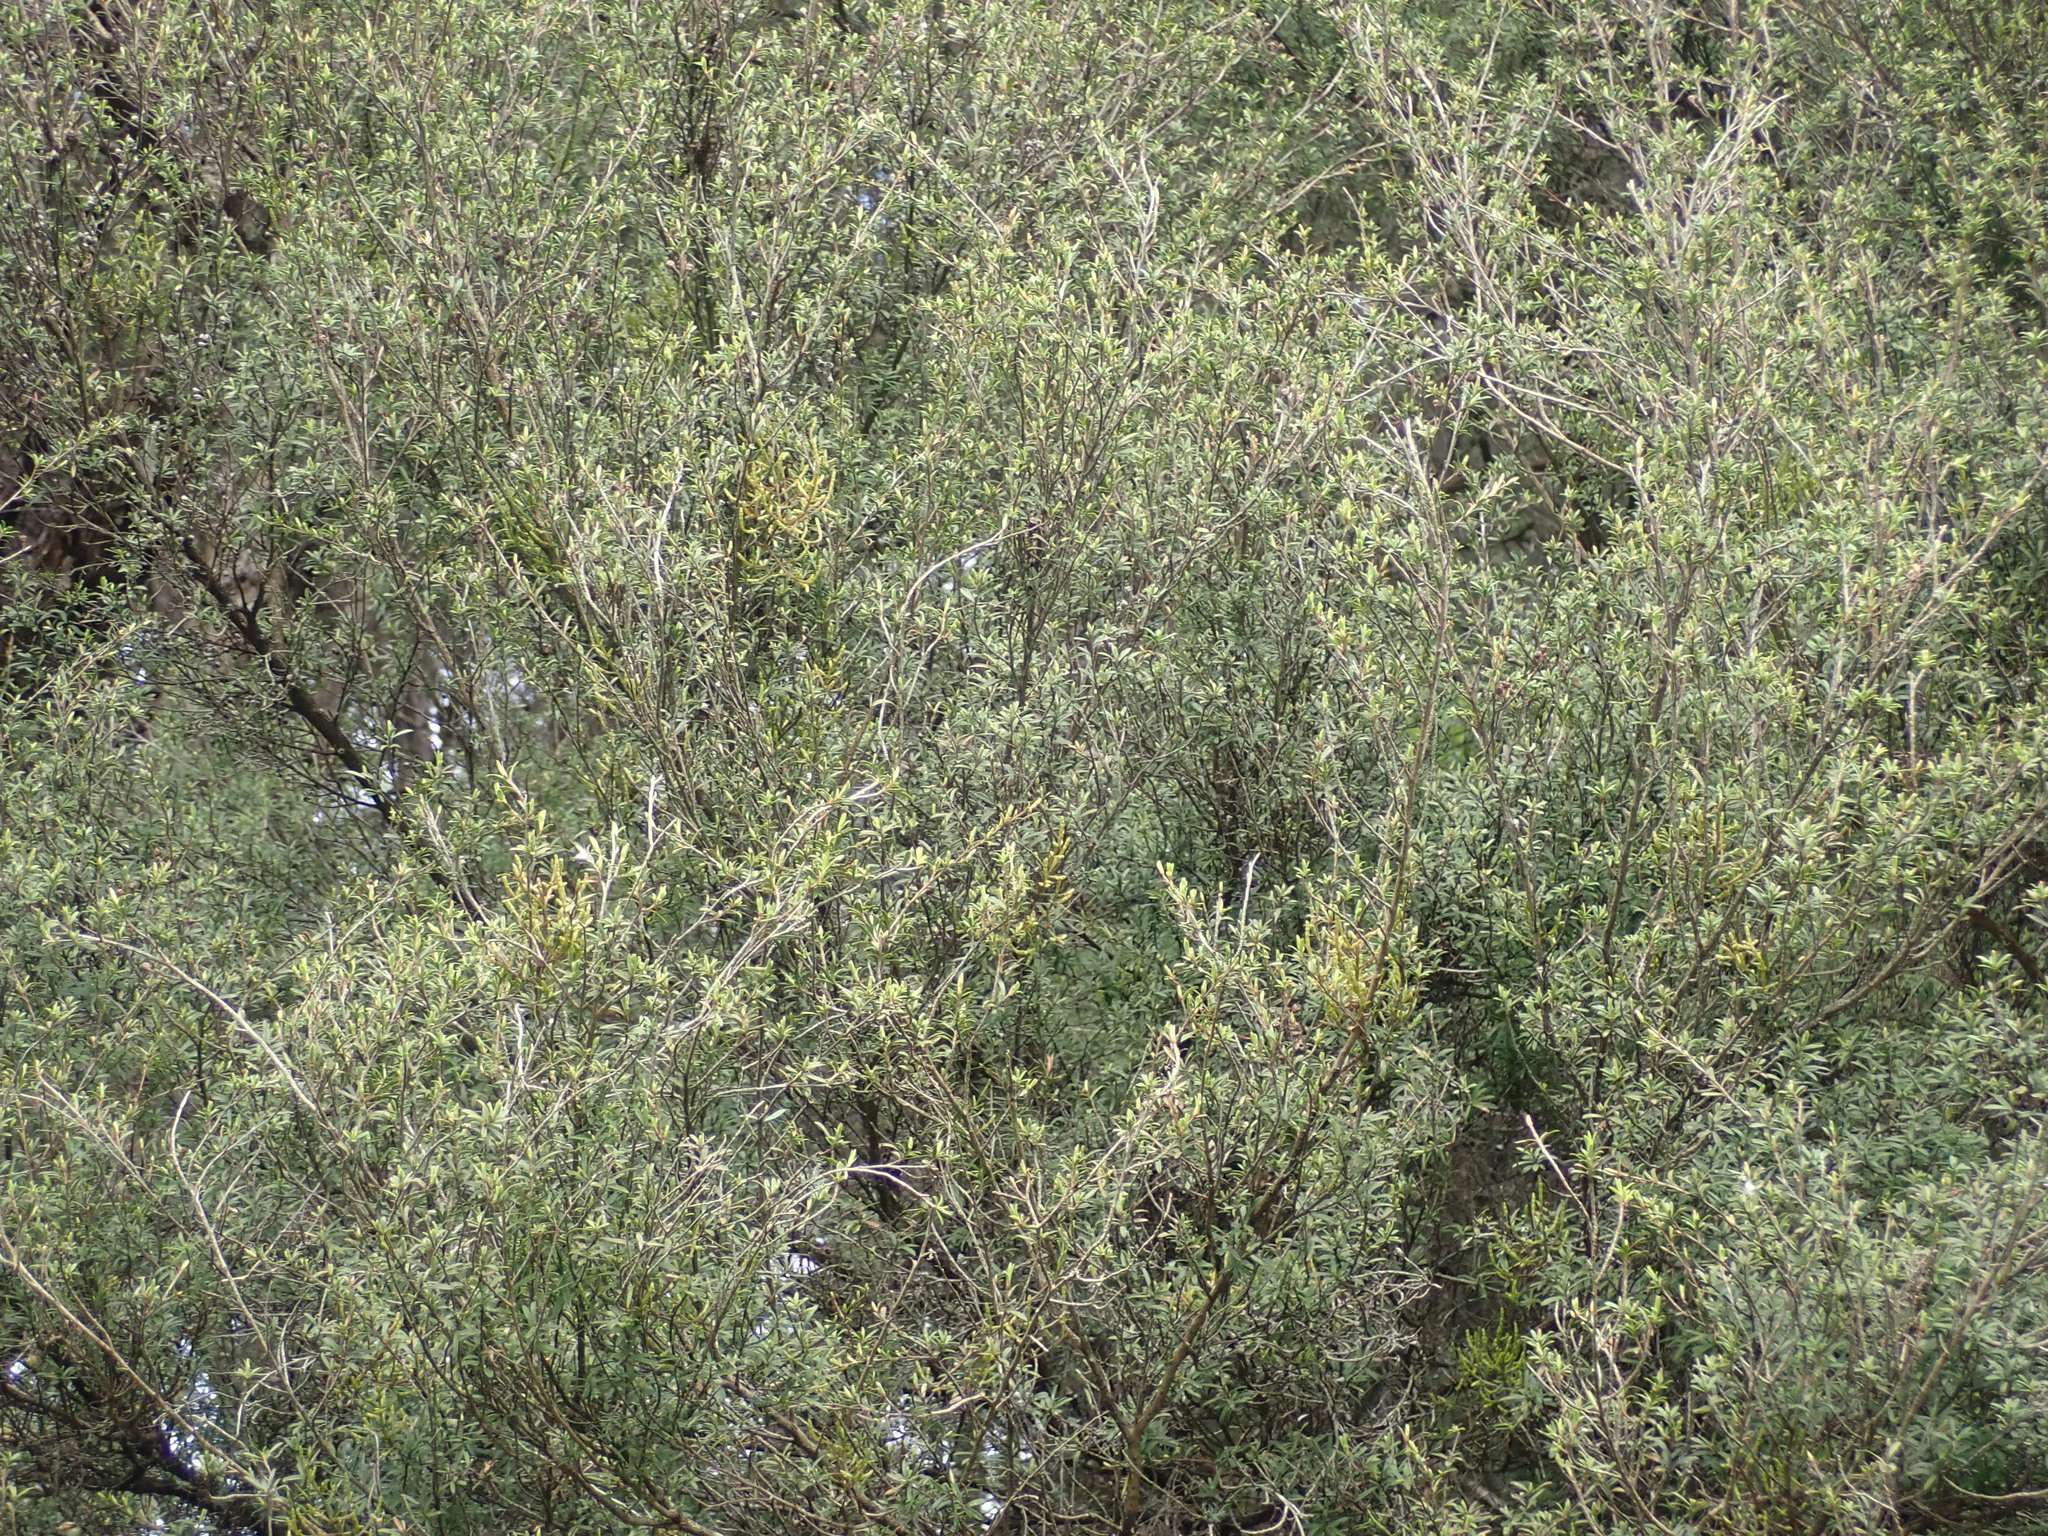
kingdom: Plantae
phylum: Tracheophyta
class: Magnoliopsida
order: Santalales
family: Viscaceae
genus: Korthalsella
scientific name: Korthalsella salicornioides
